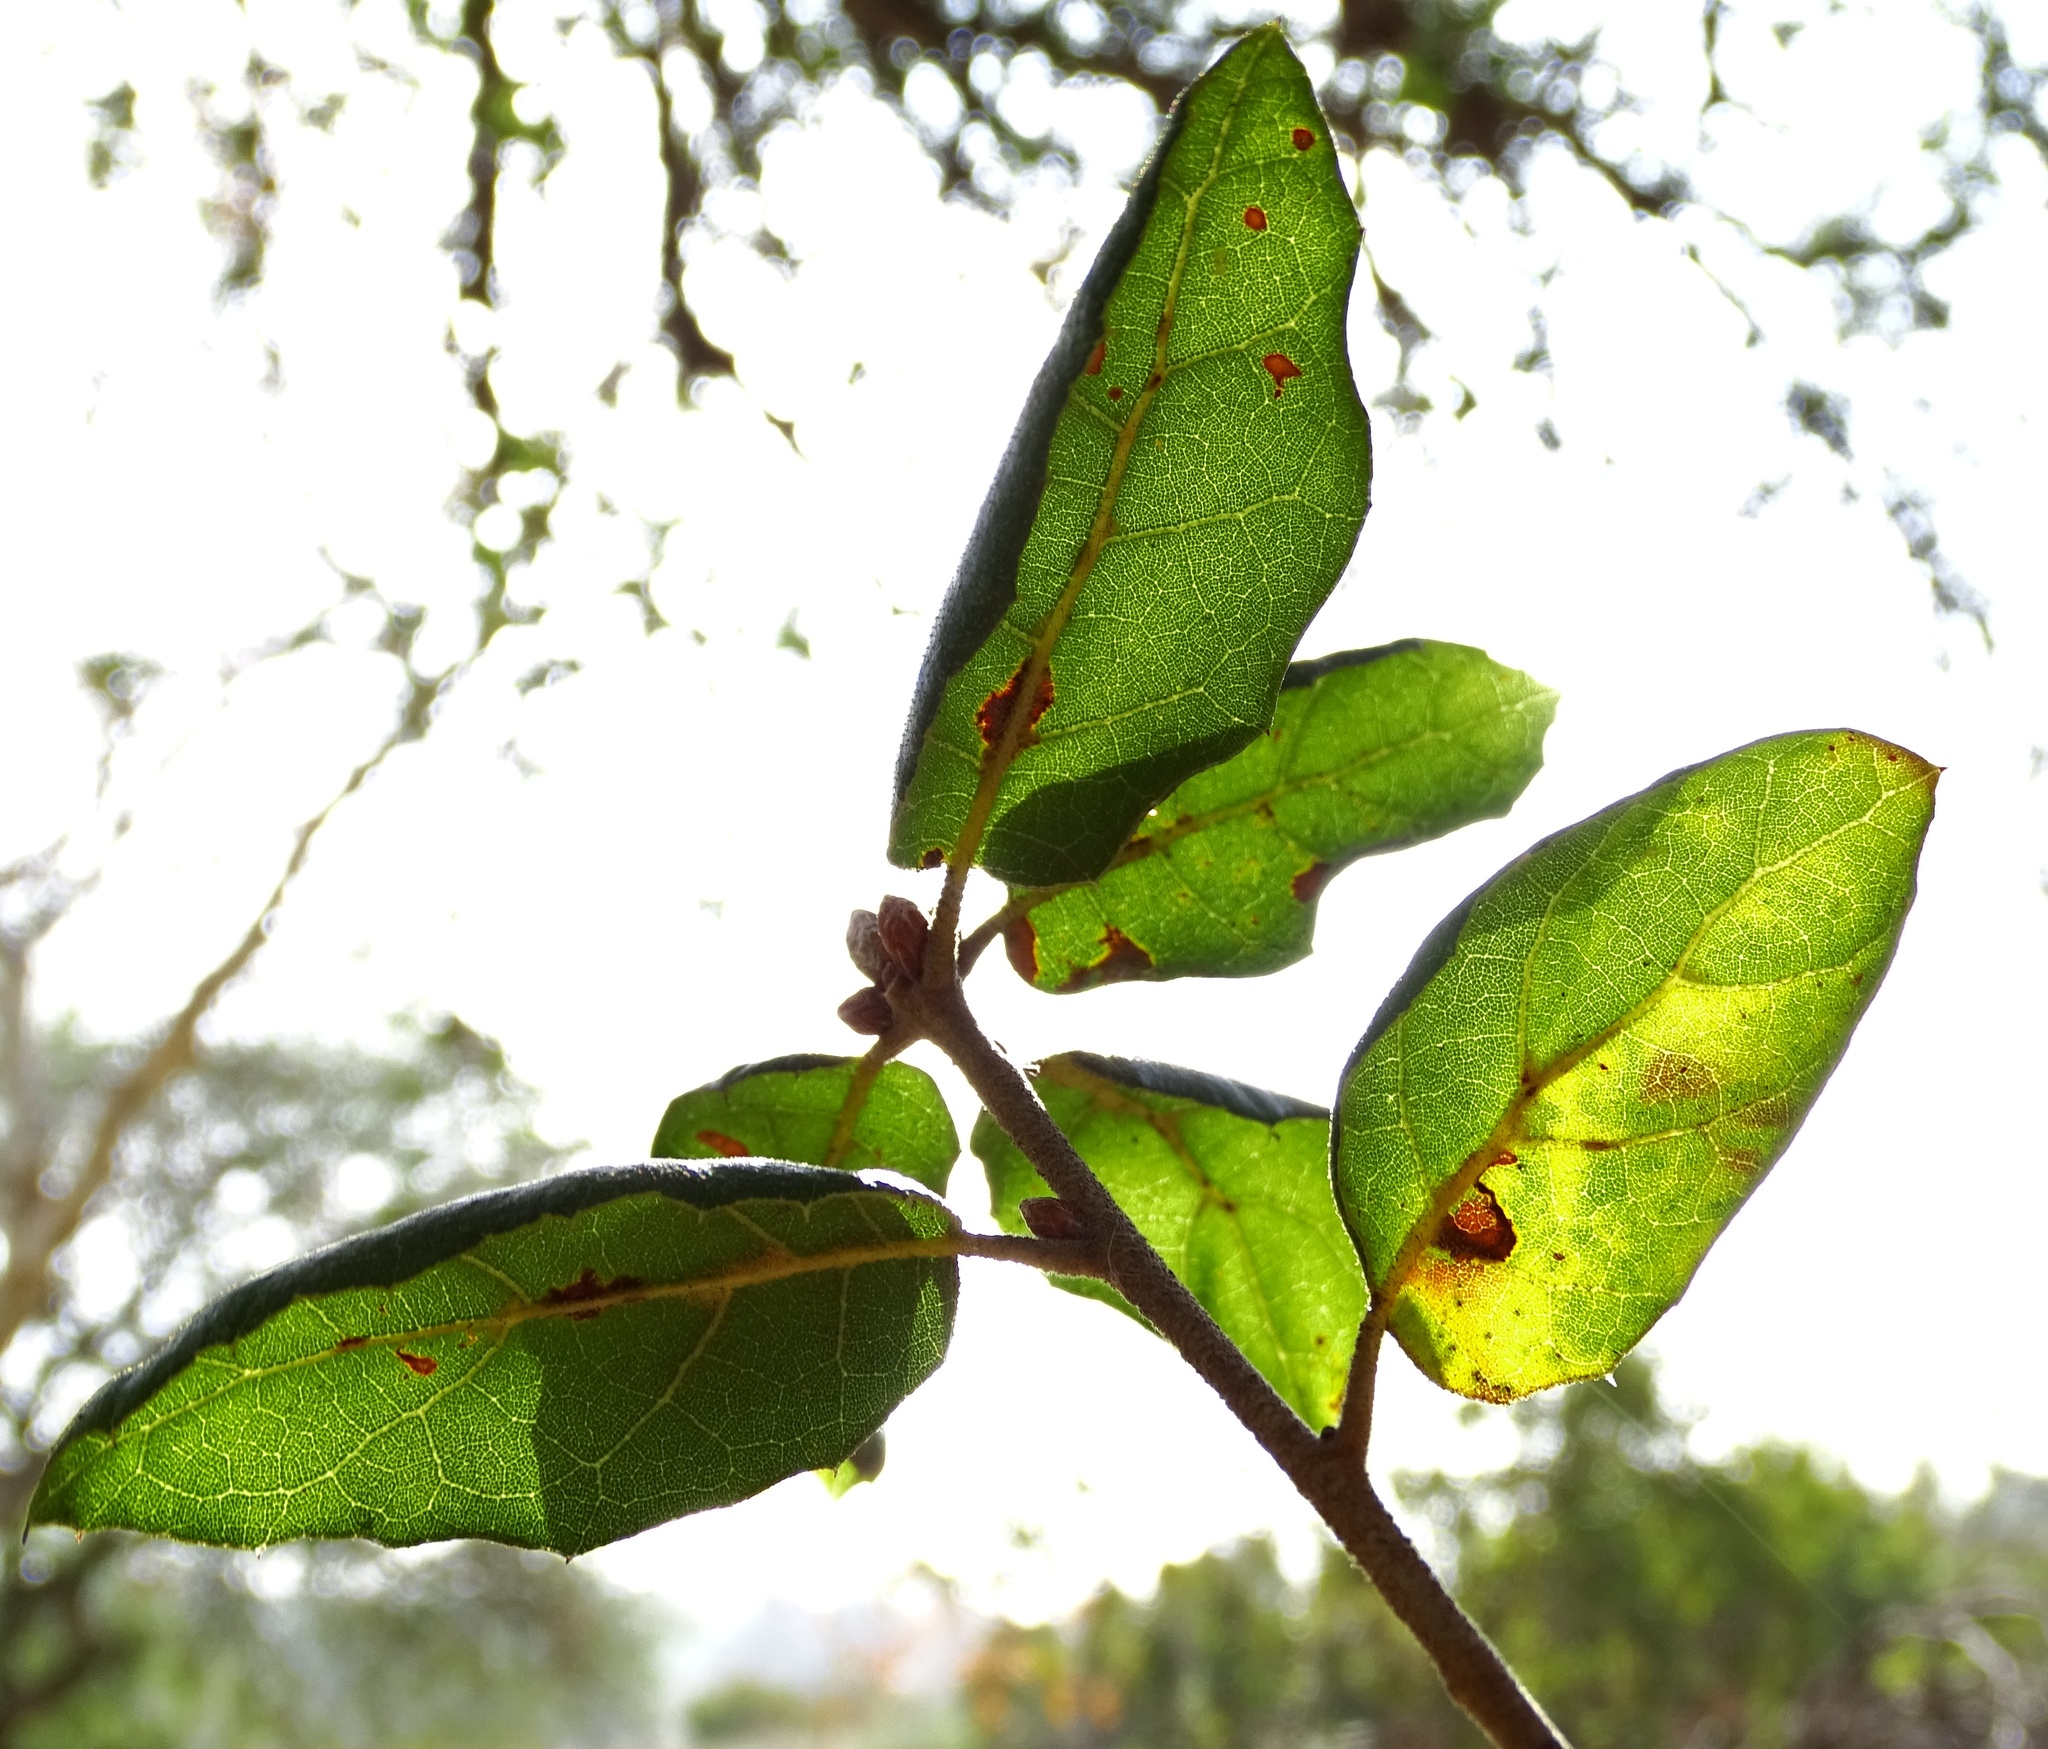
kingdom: Plantae
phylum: Tracheophyta
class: Magnoliopsida
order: Fagales
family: Fagaceae
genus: Quercus
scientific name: Quercus agrifolia
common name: California live oak
